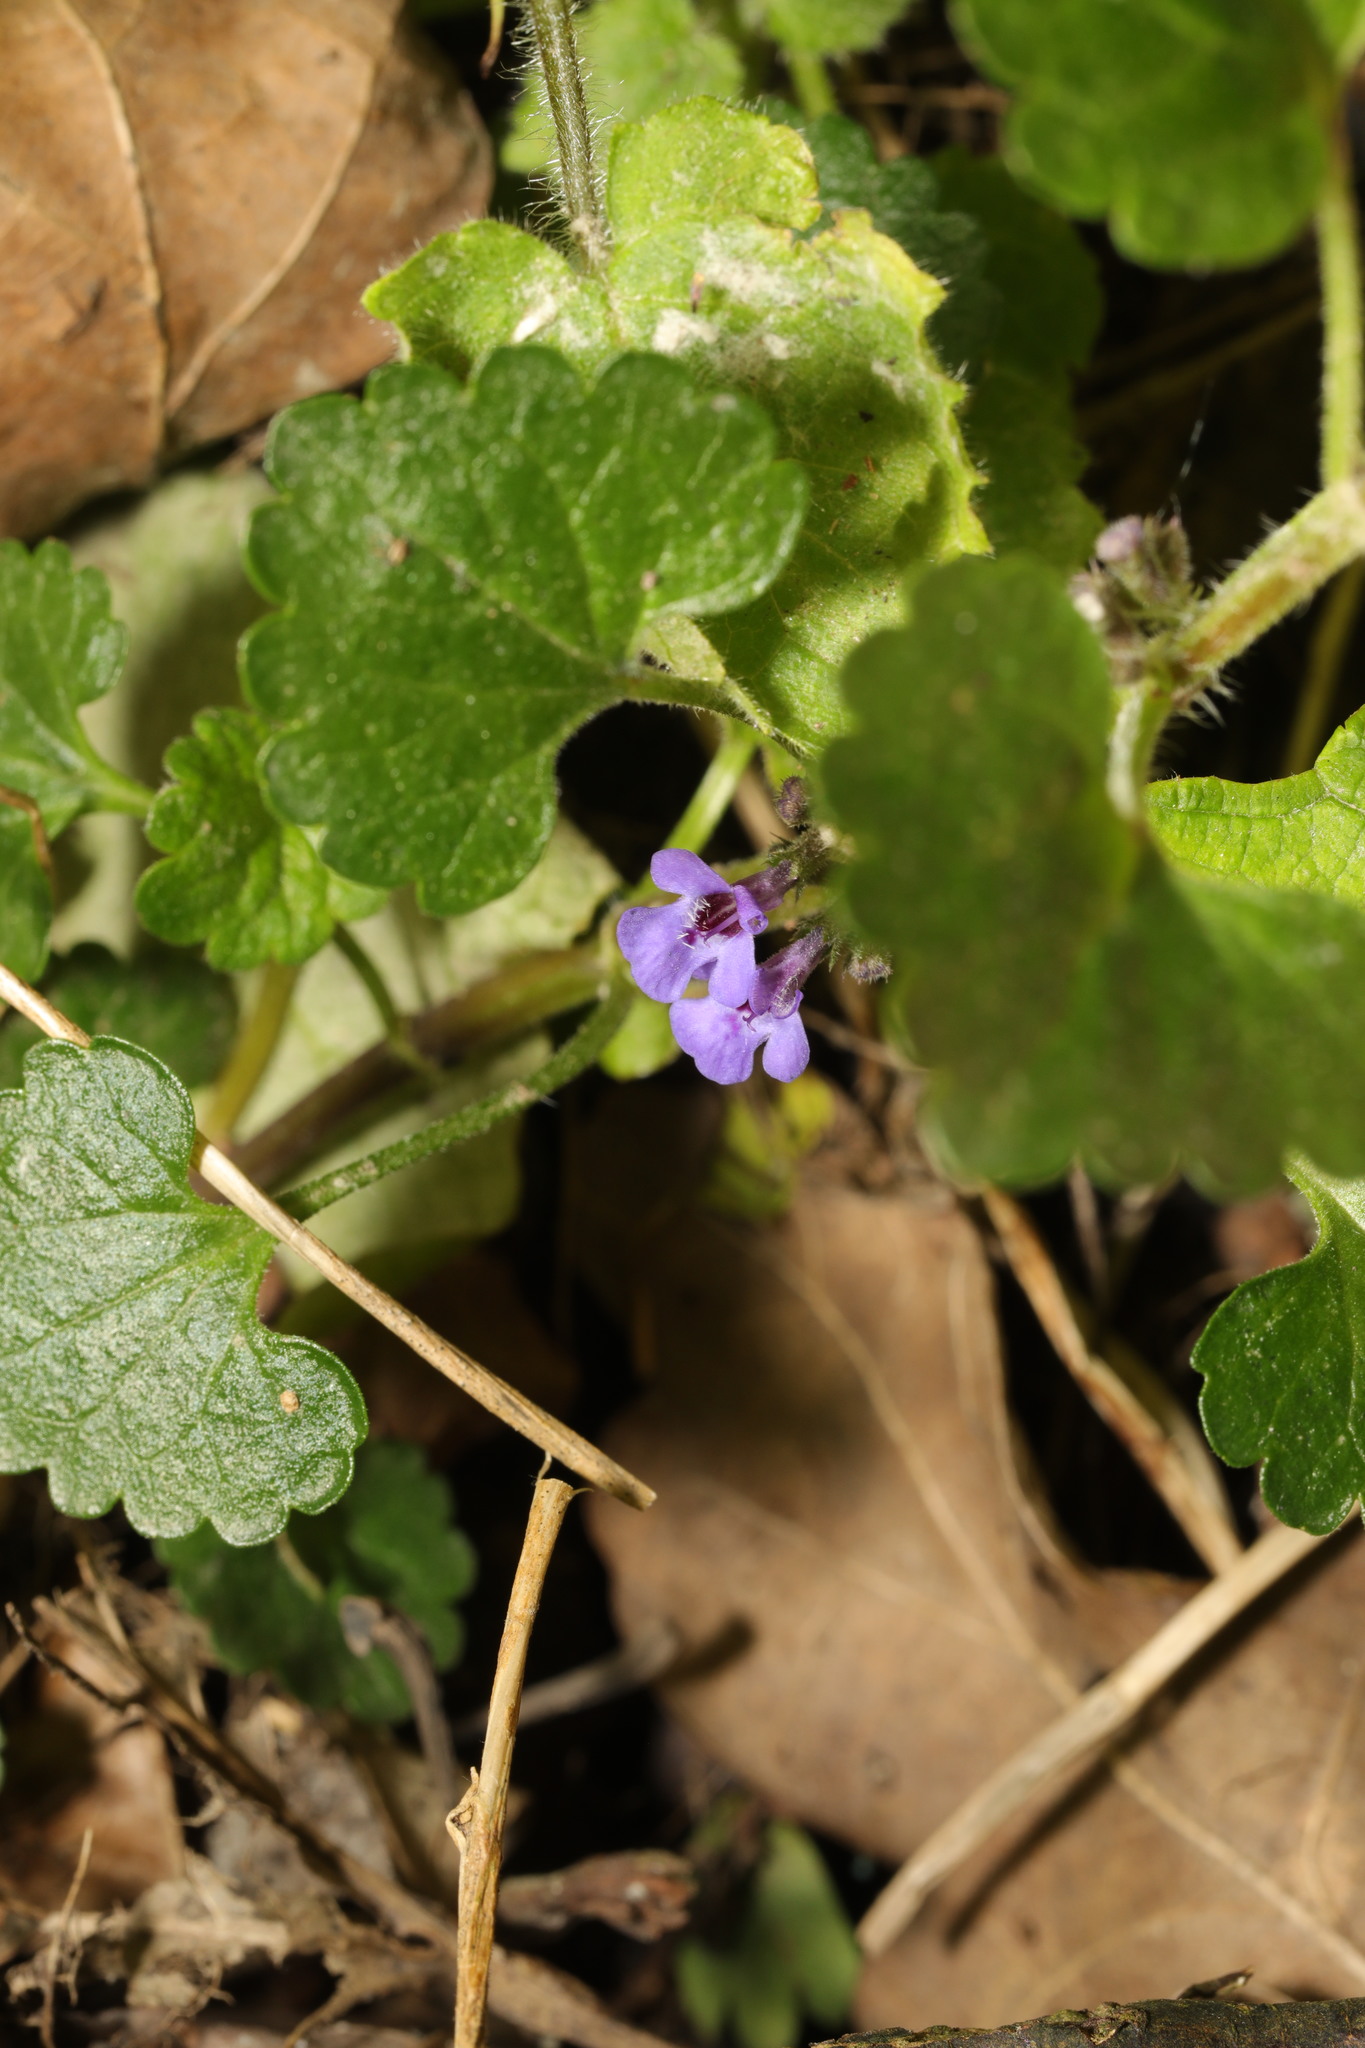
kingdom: Plantae
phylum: Tracheophyta
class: Magnoliopsida
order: Lamiales
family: Lamiaceae
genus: Glechoma
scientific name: Glechoma hederacea
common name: Ground ivy
